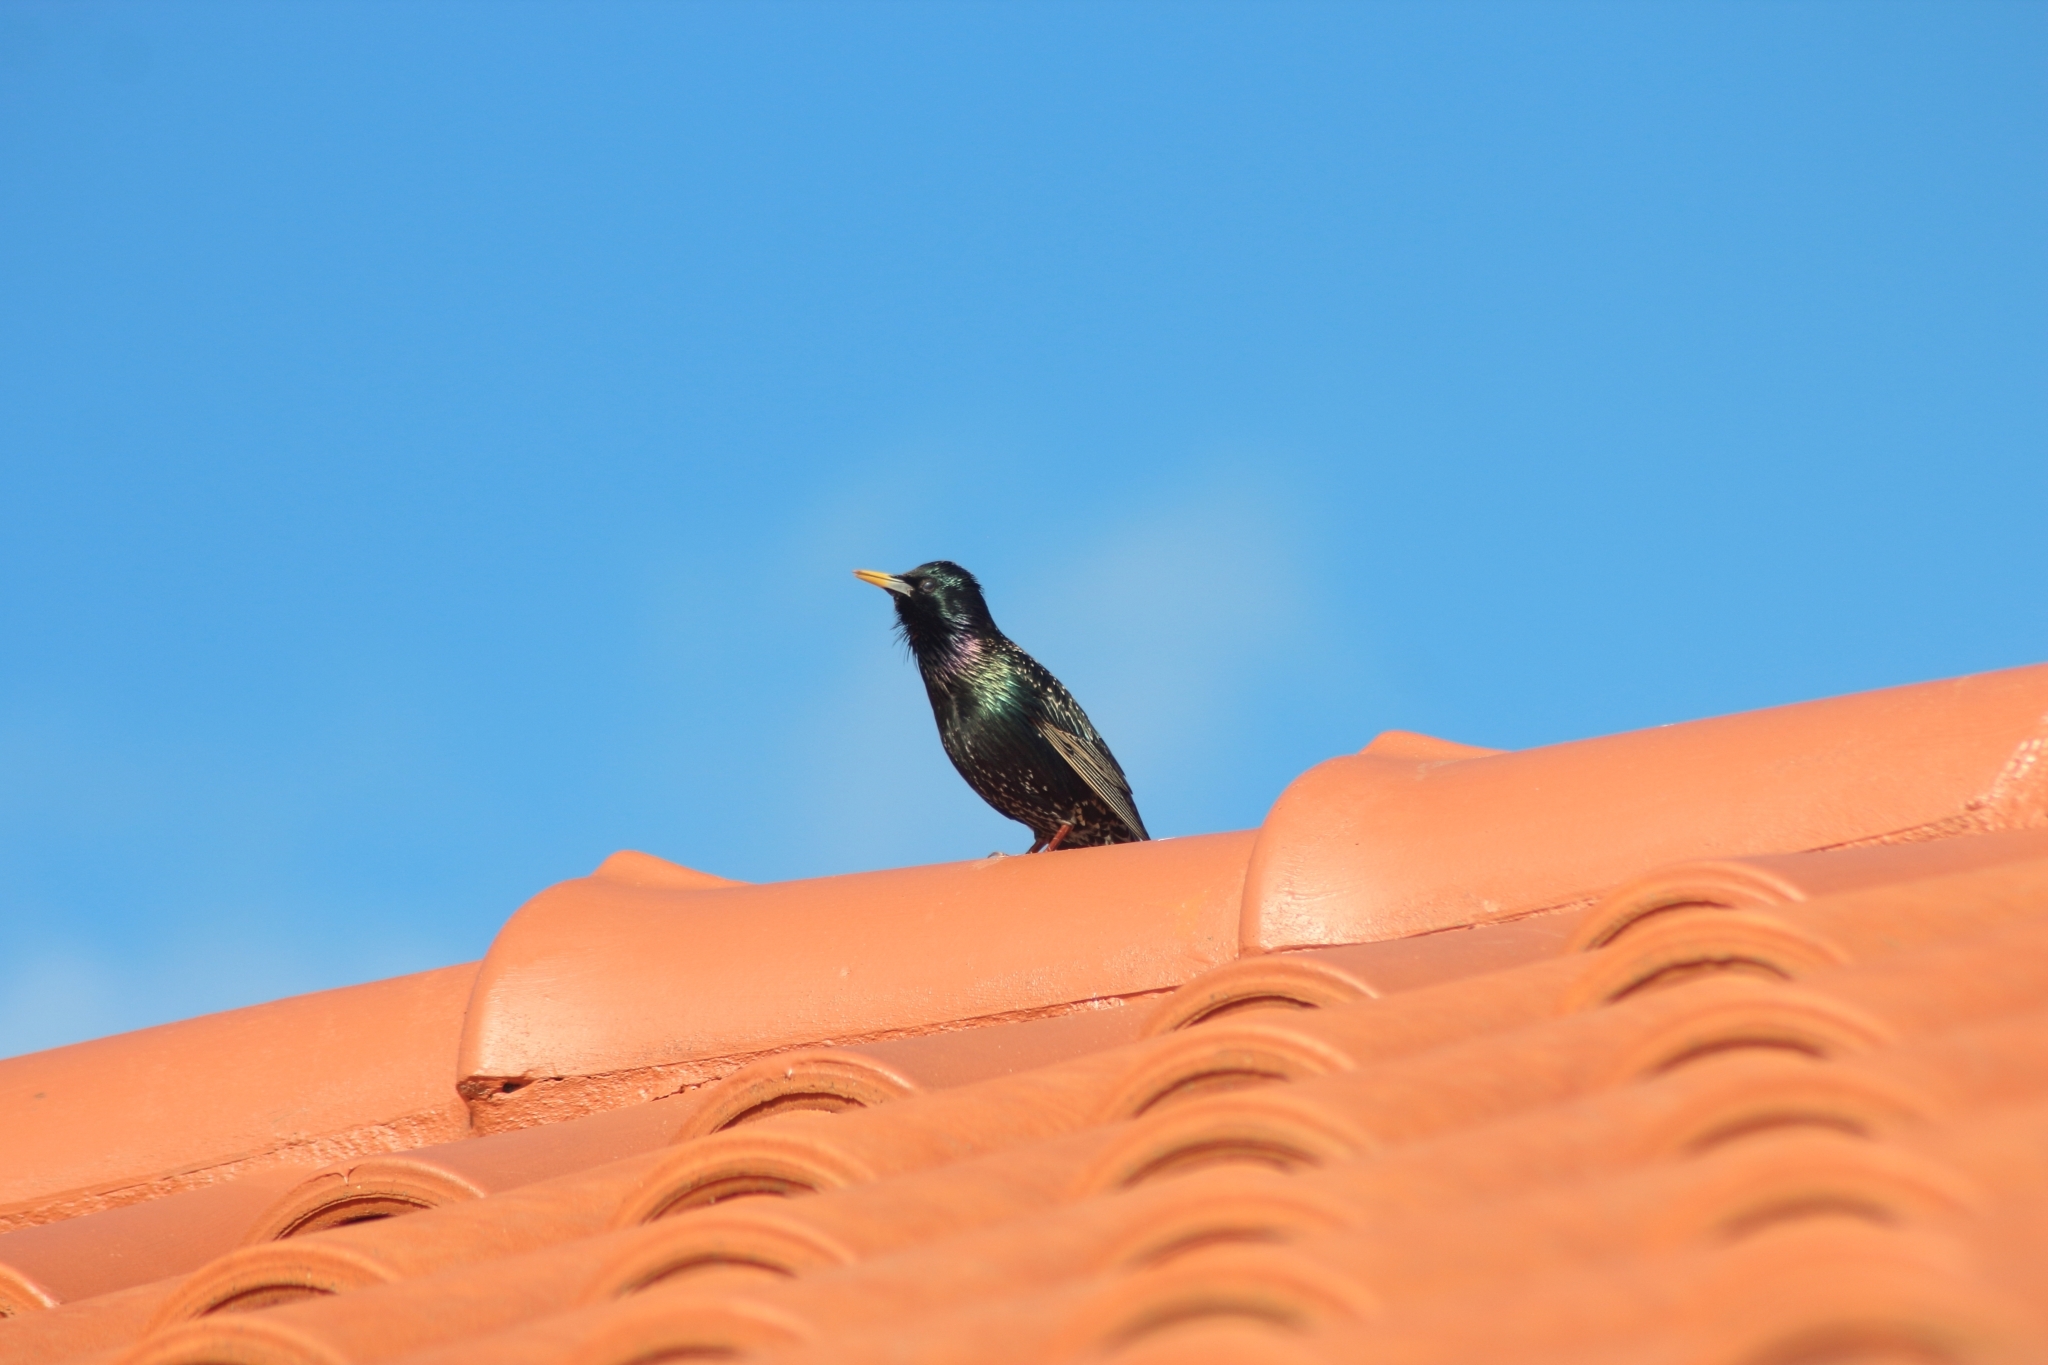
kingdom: Animalia
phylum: Chordata
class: Aves
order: Passeriformes
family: Sturnidae
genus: Sturnus
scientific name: Sturnus vulgaris
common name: Common starling
